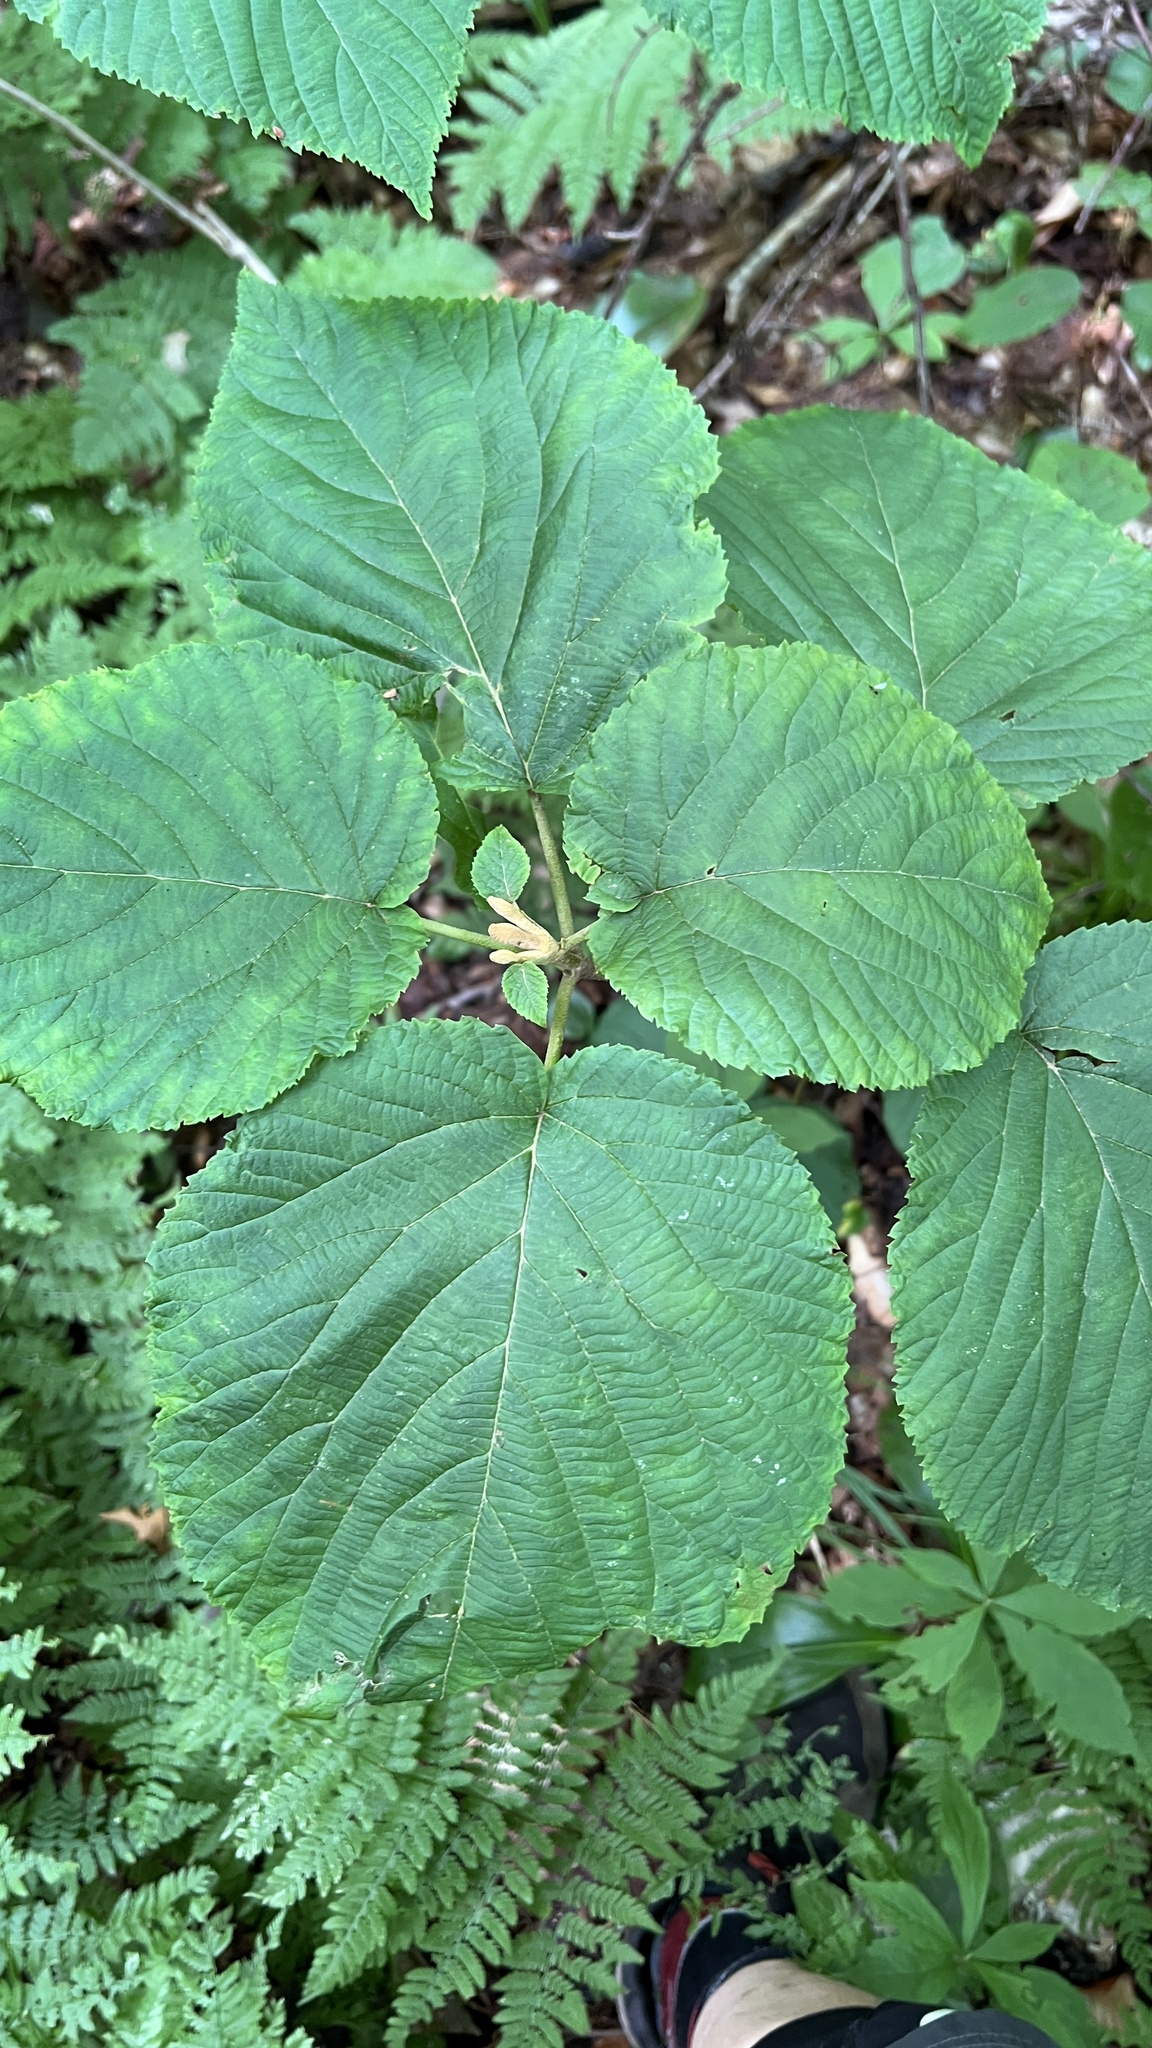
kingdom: Plantae
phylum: Tracheophyta
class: Magnoliopsida
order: Dipsacales
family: Viburnaceae
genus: Viburnum
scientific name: Viburnum lantanoides
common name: Hobblebush
